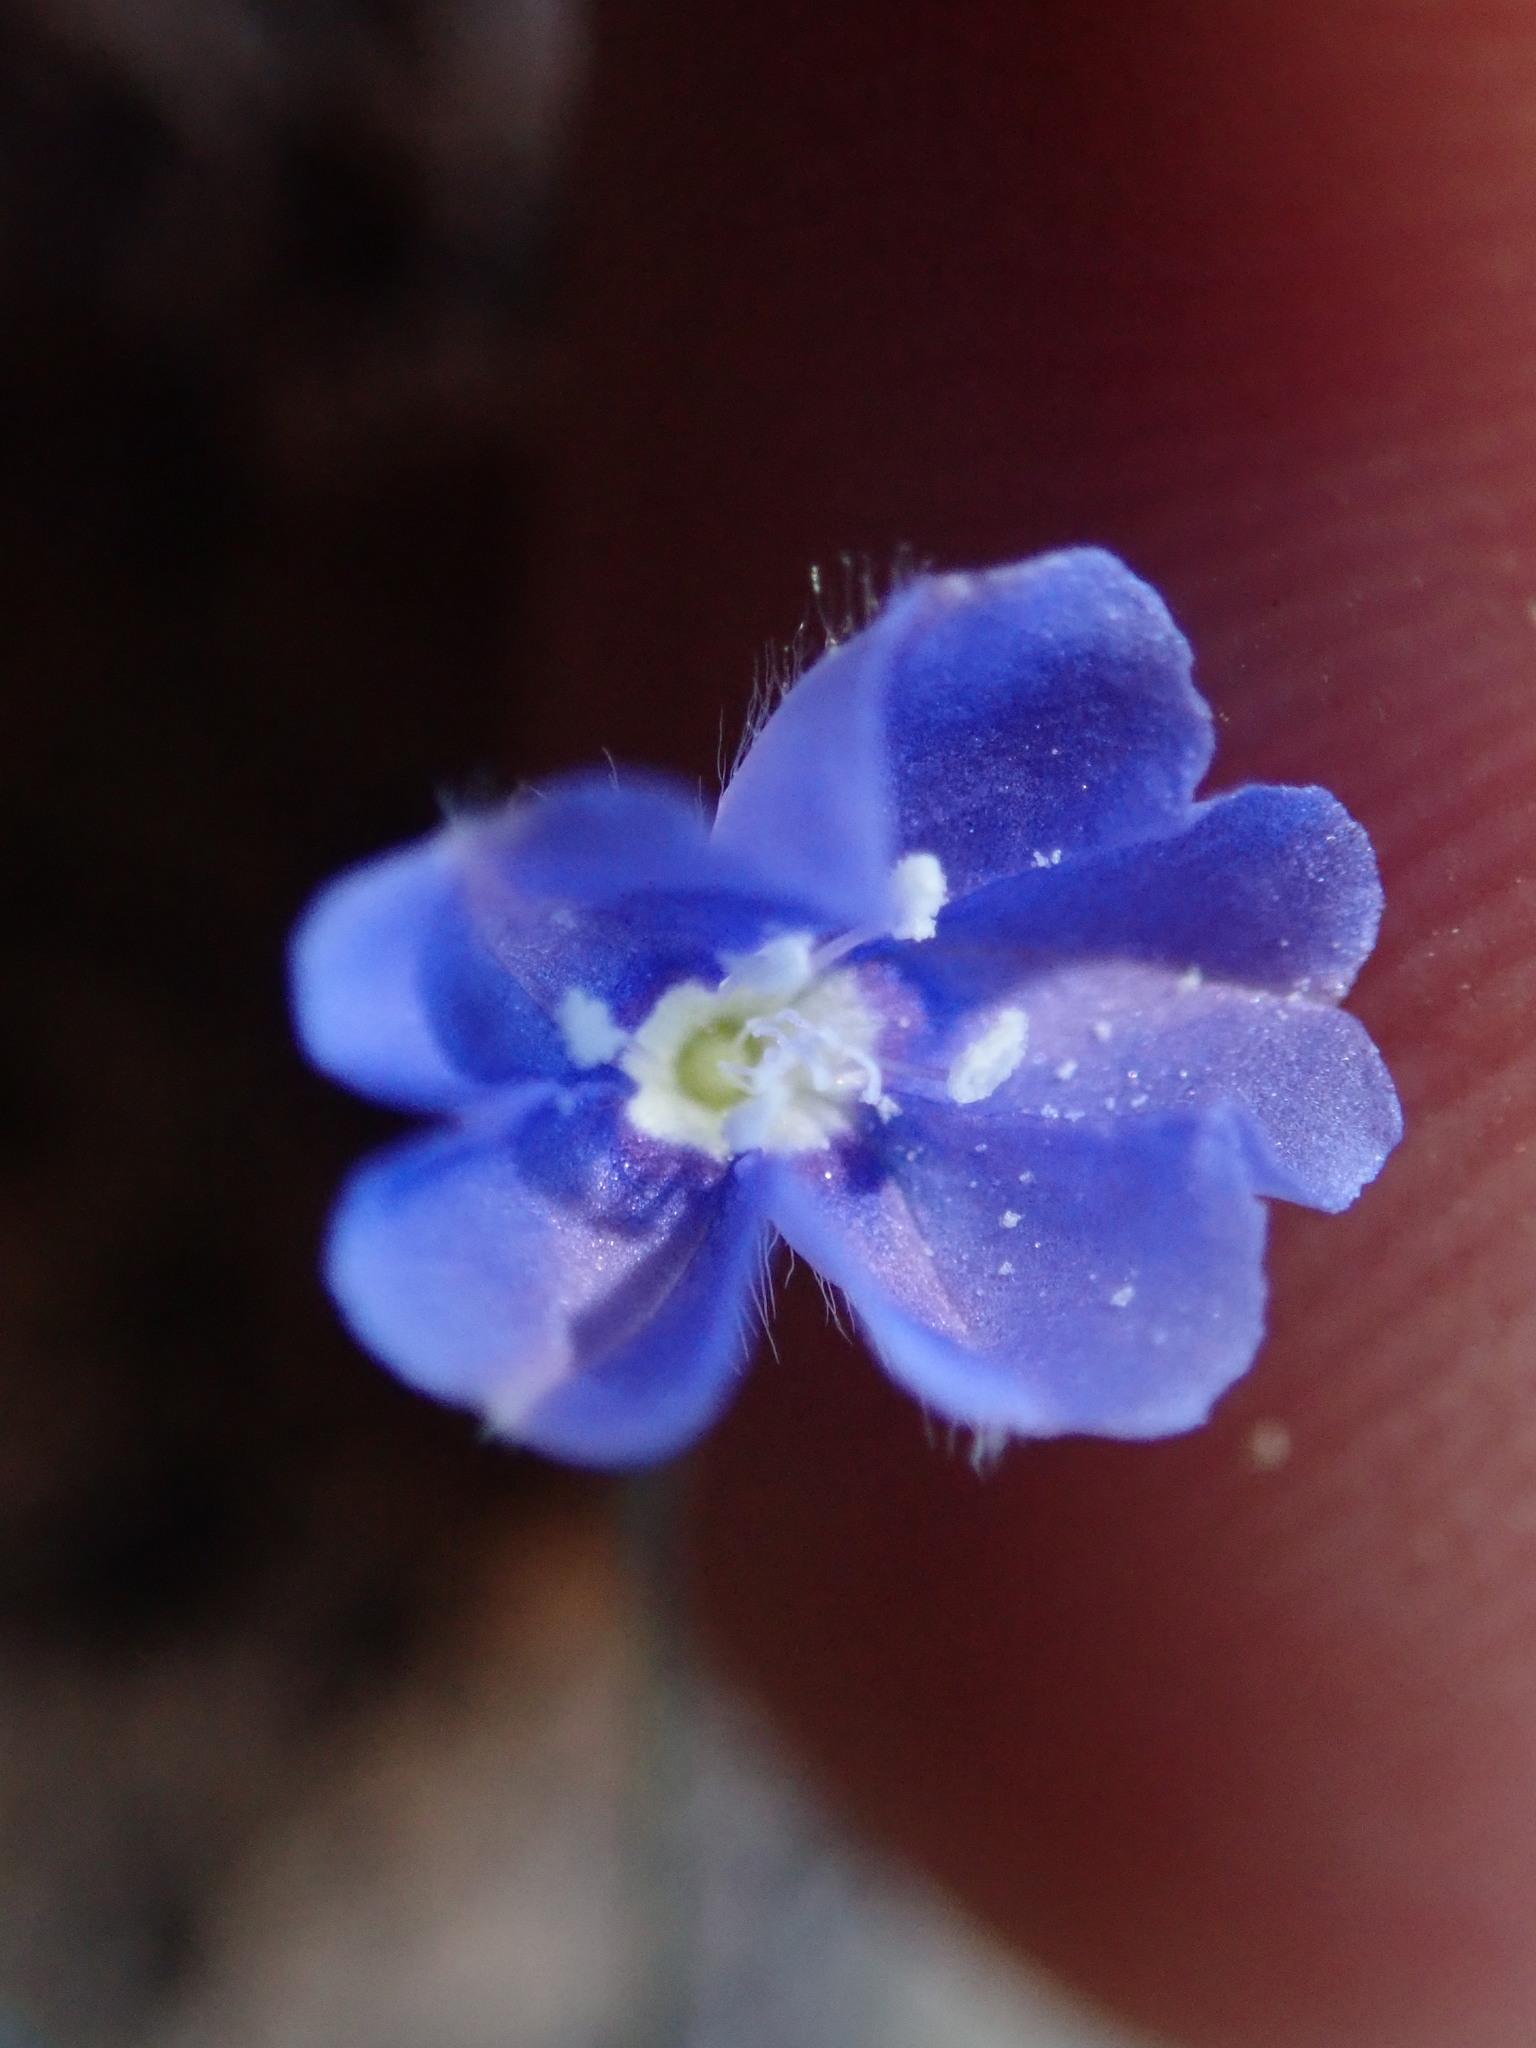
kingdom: Plantae
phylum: Tracheophyta
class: Magnoliopsida
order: Solanales
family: Convolvulaceae
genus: Evolvulus
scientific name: Evolvulus alsinoides
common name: Slender dwarf morning-glory
